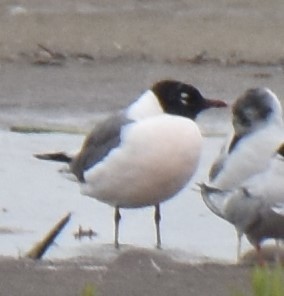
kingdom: Animalia
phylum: Chordata
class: Aves
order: Charadriiformes
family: Laridae
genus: Leucophaeus
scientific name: Leucophaeus pipixcan
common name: Franklin's gull
